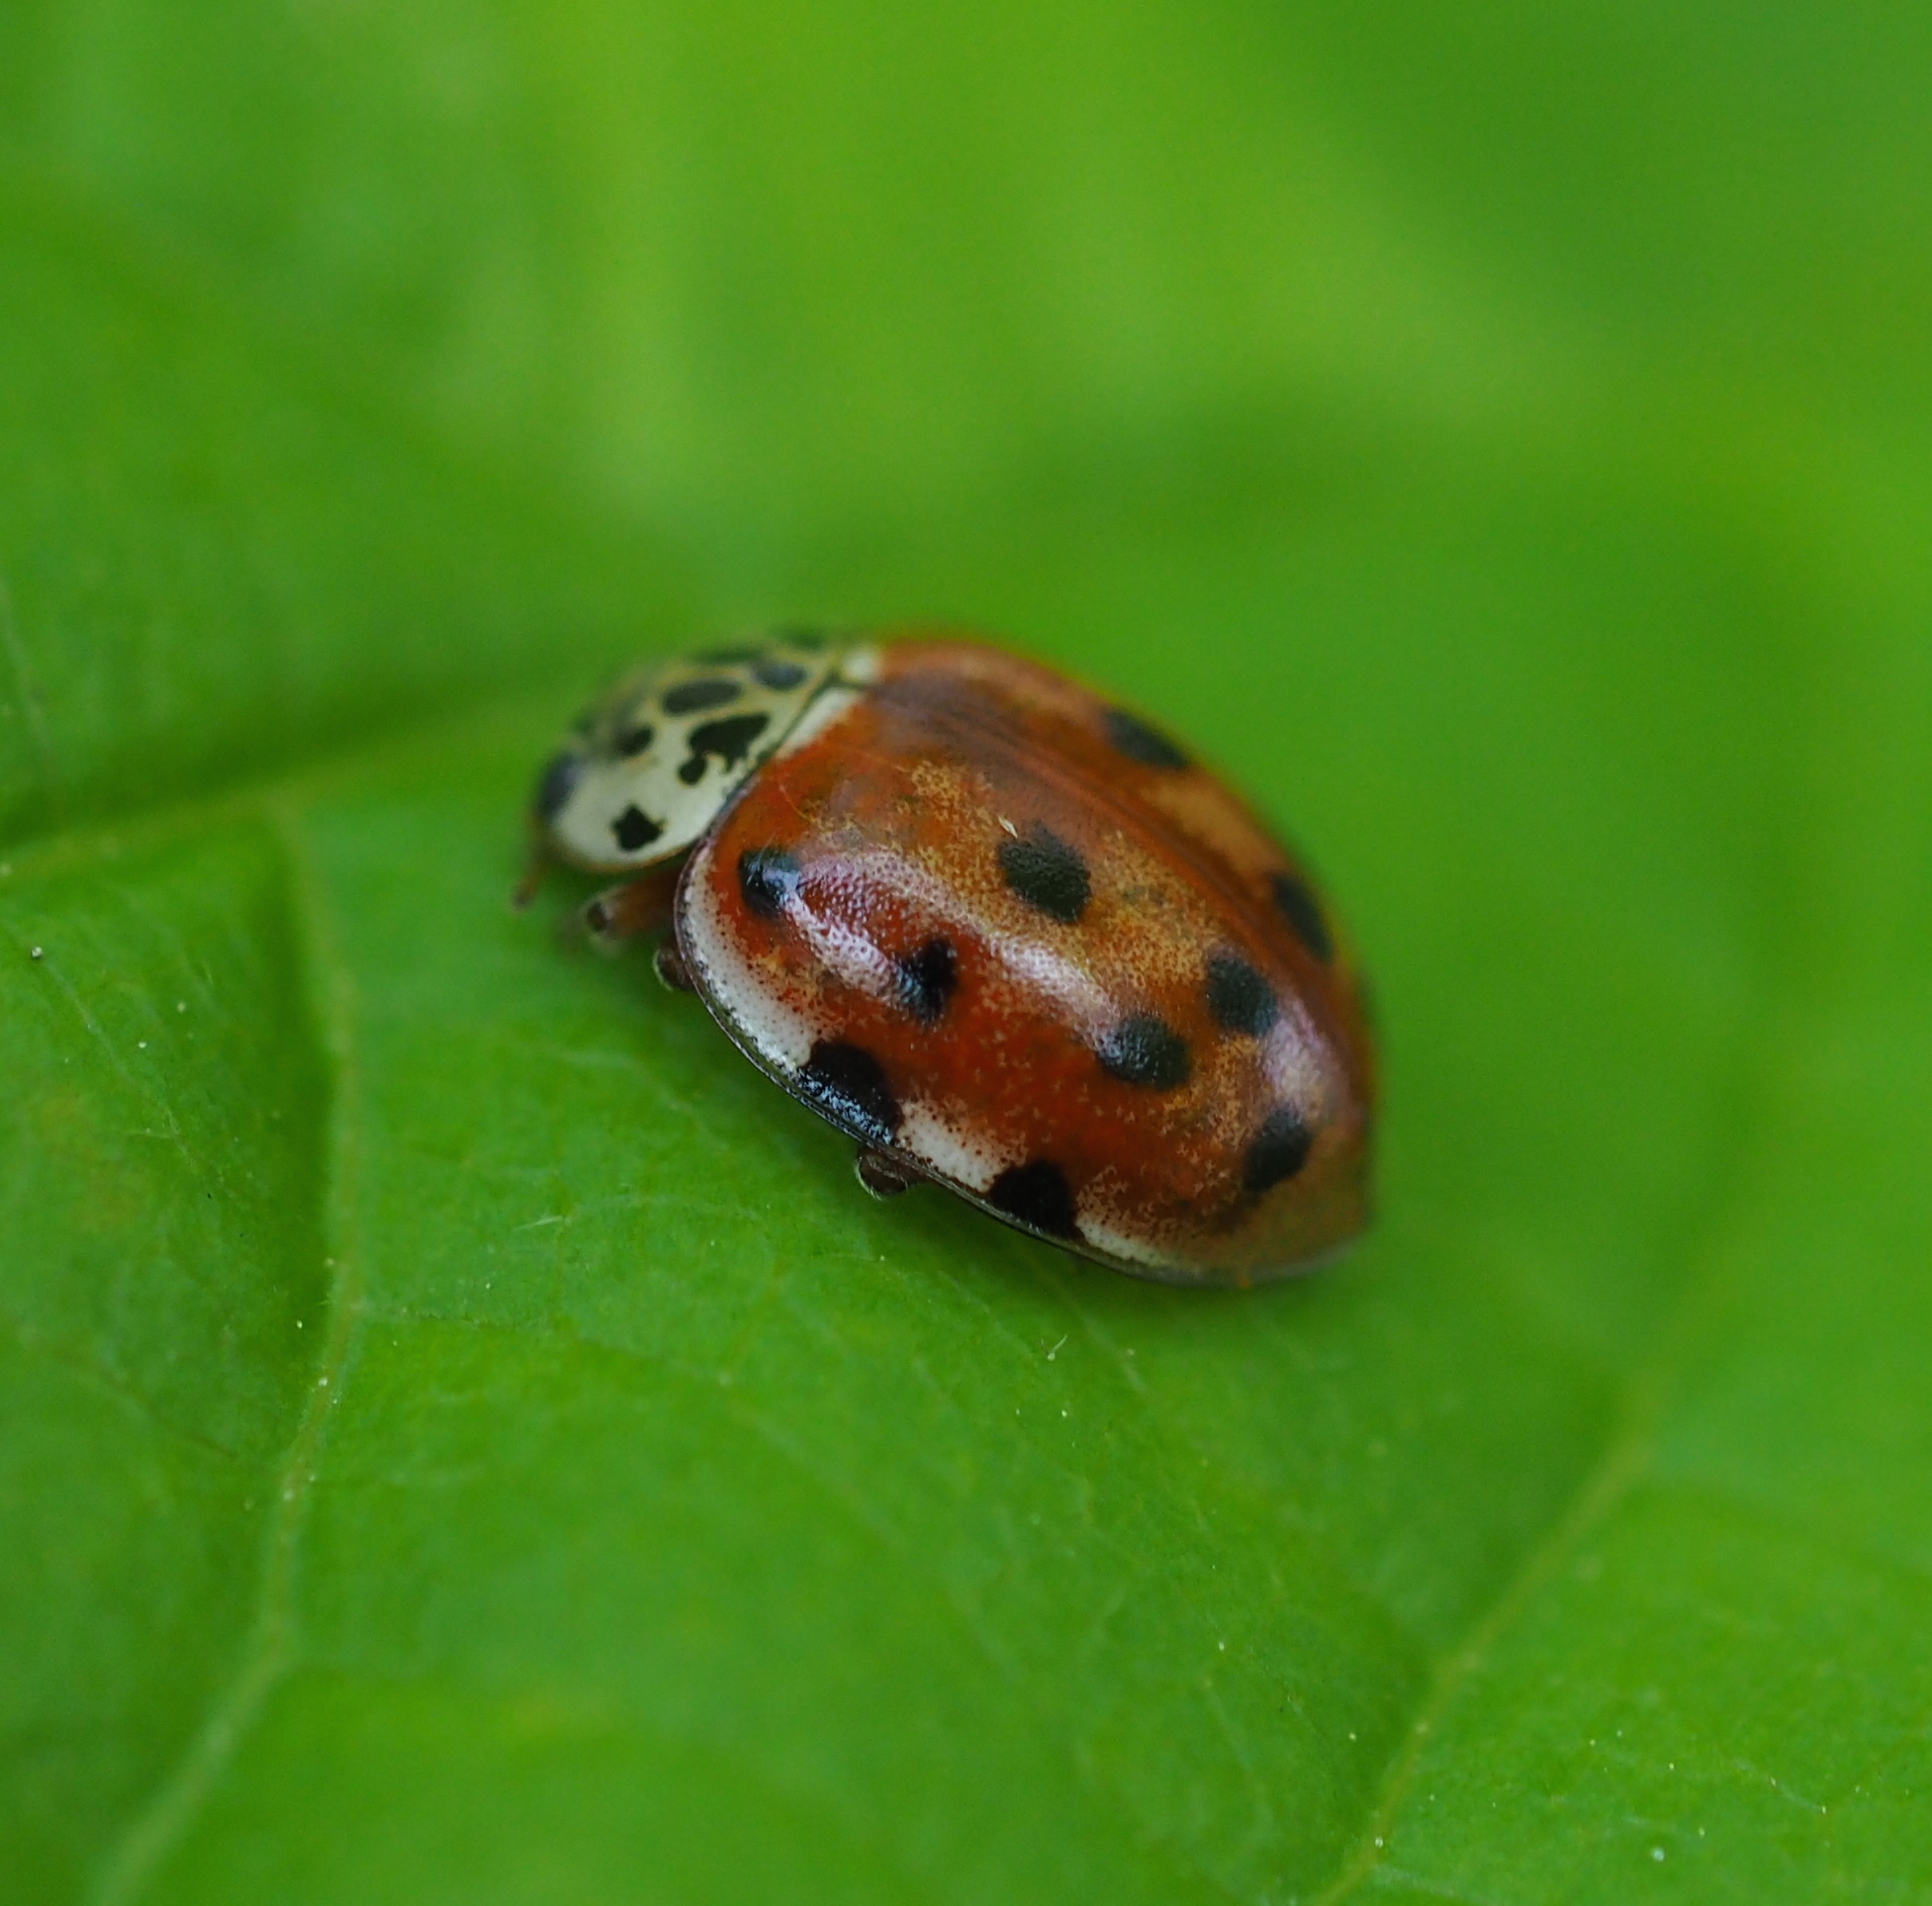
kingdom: Animalia
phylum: Arthropoda
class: Insecta
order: Coleoptera
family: Coccinellidae
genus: Harmonia
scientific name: Harmonia quadripunctata
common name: Cream-streaked ladybird
